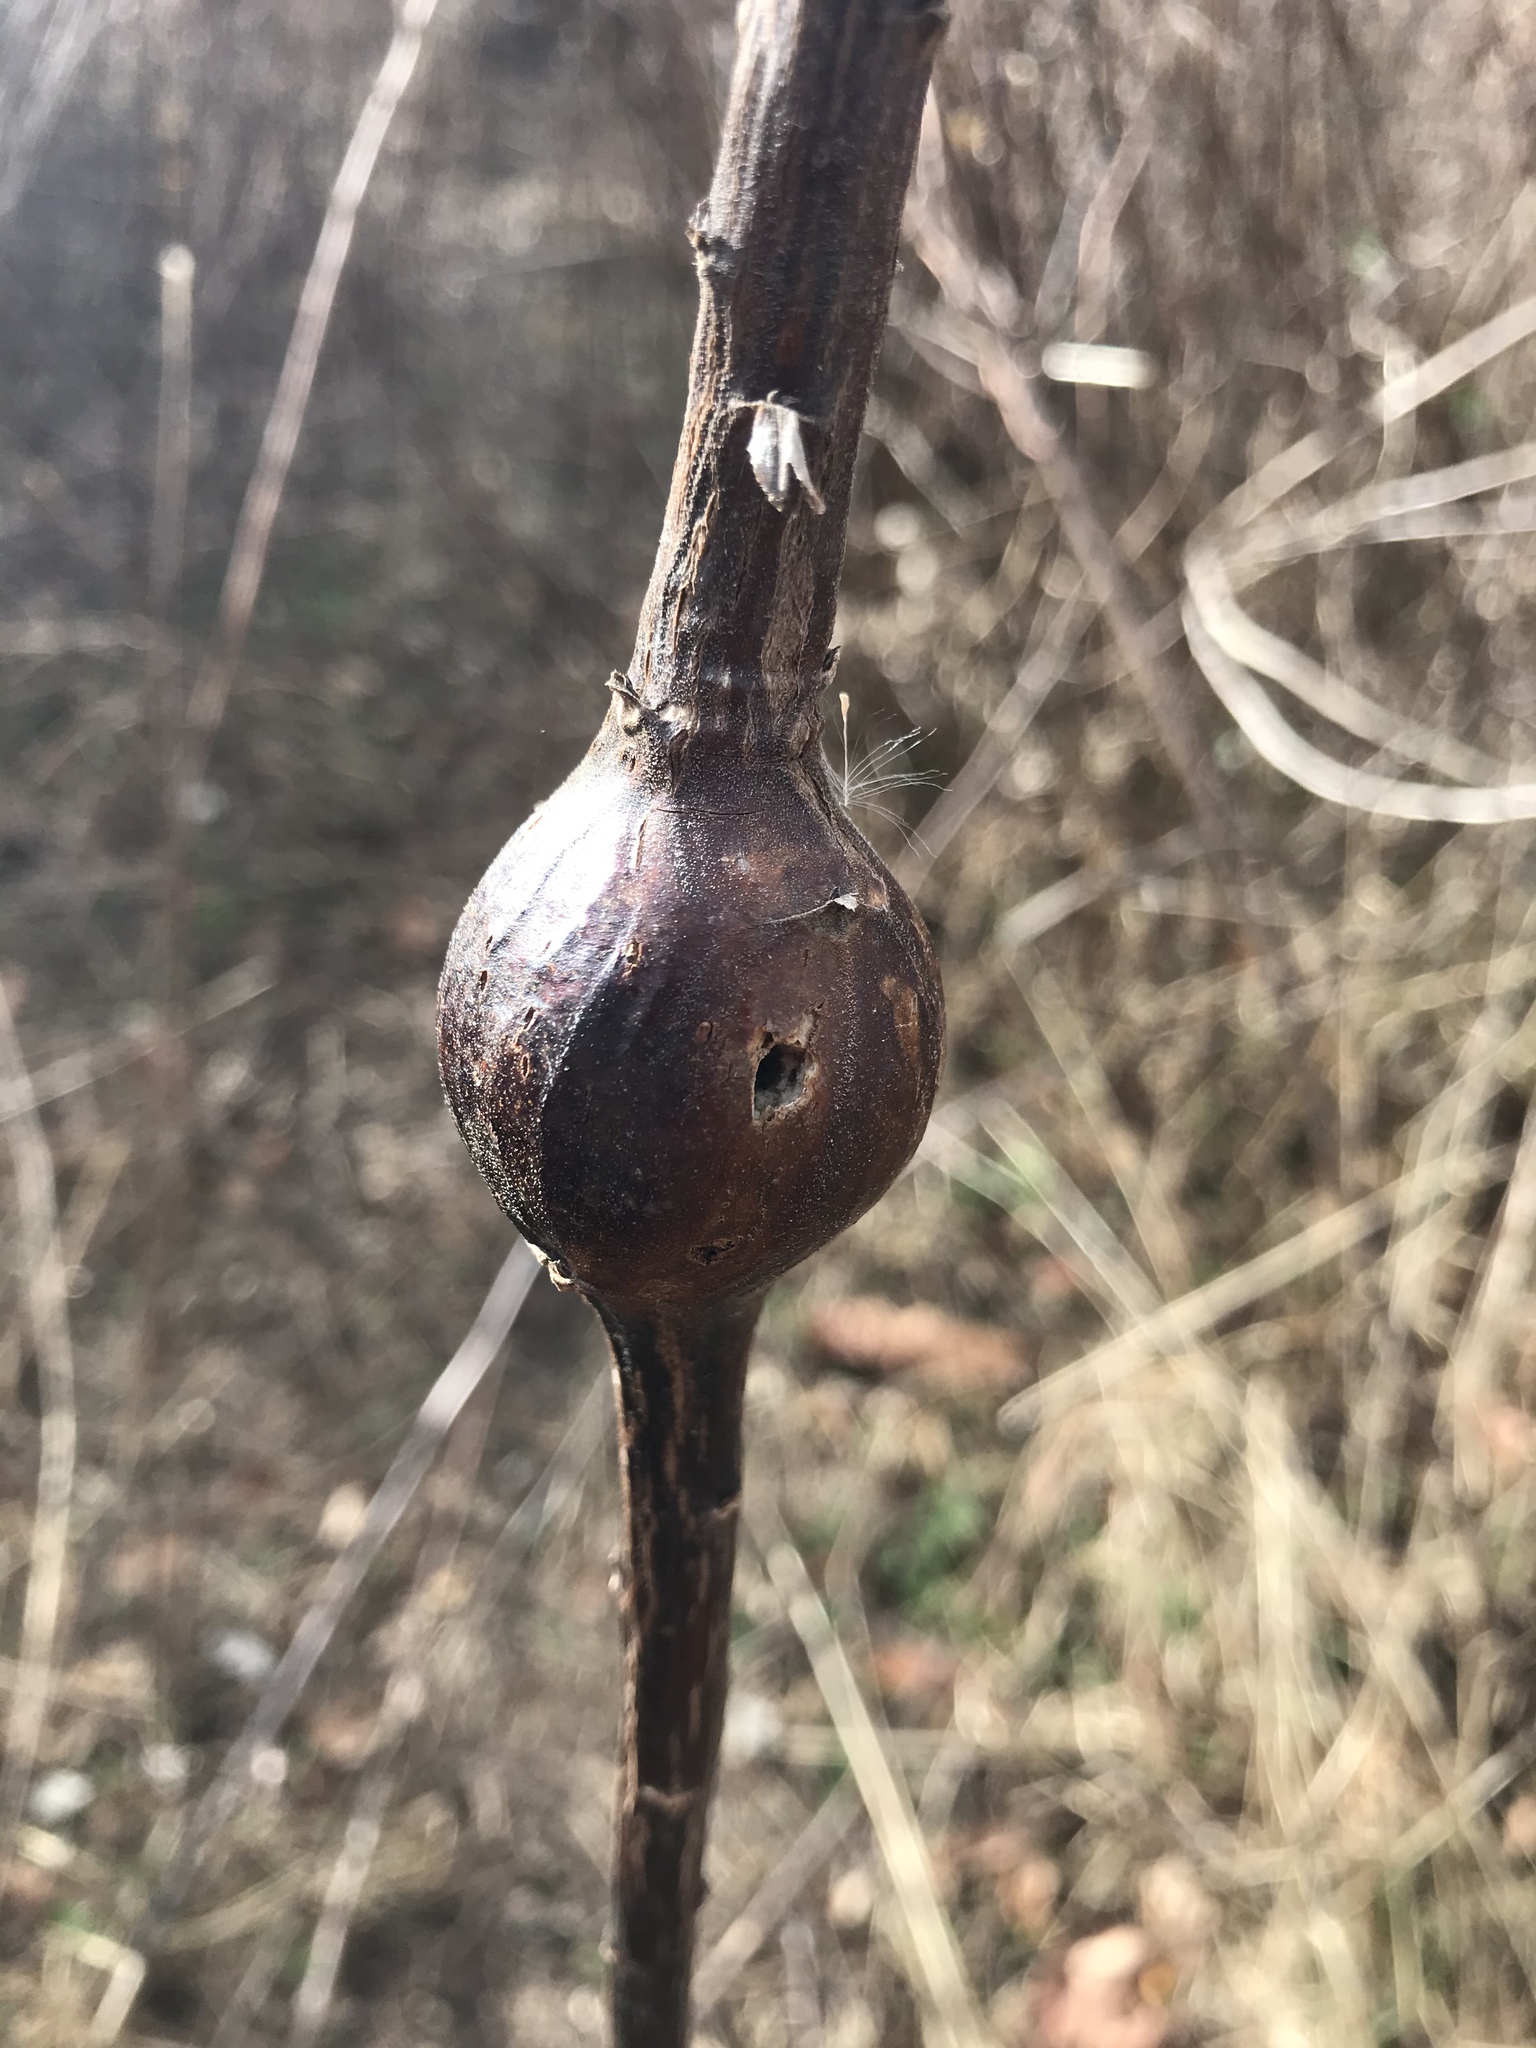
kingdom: Animalia
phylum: Arthropoda
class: Insecta
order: Diptera
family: Tephritidae
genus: Eurosta
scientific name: Eurosta solidaginis
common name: Goldenrod gall fly
